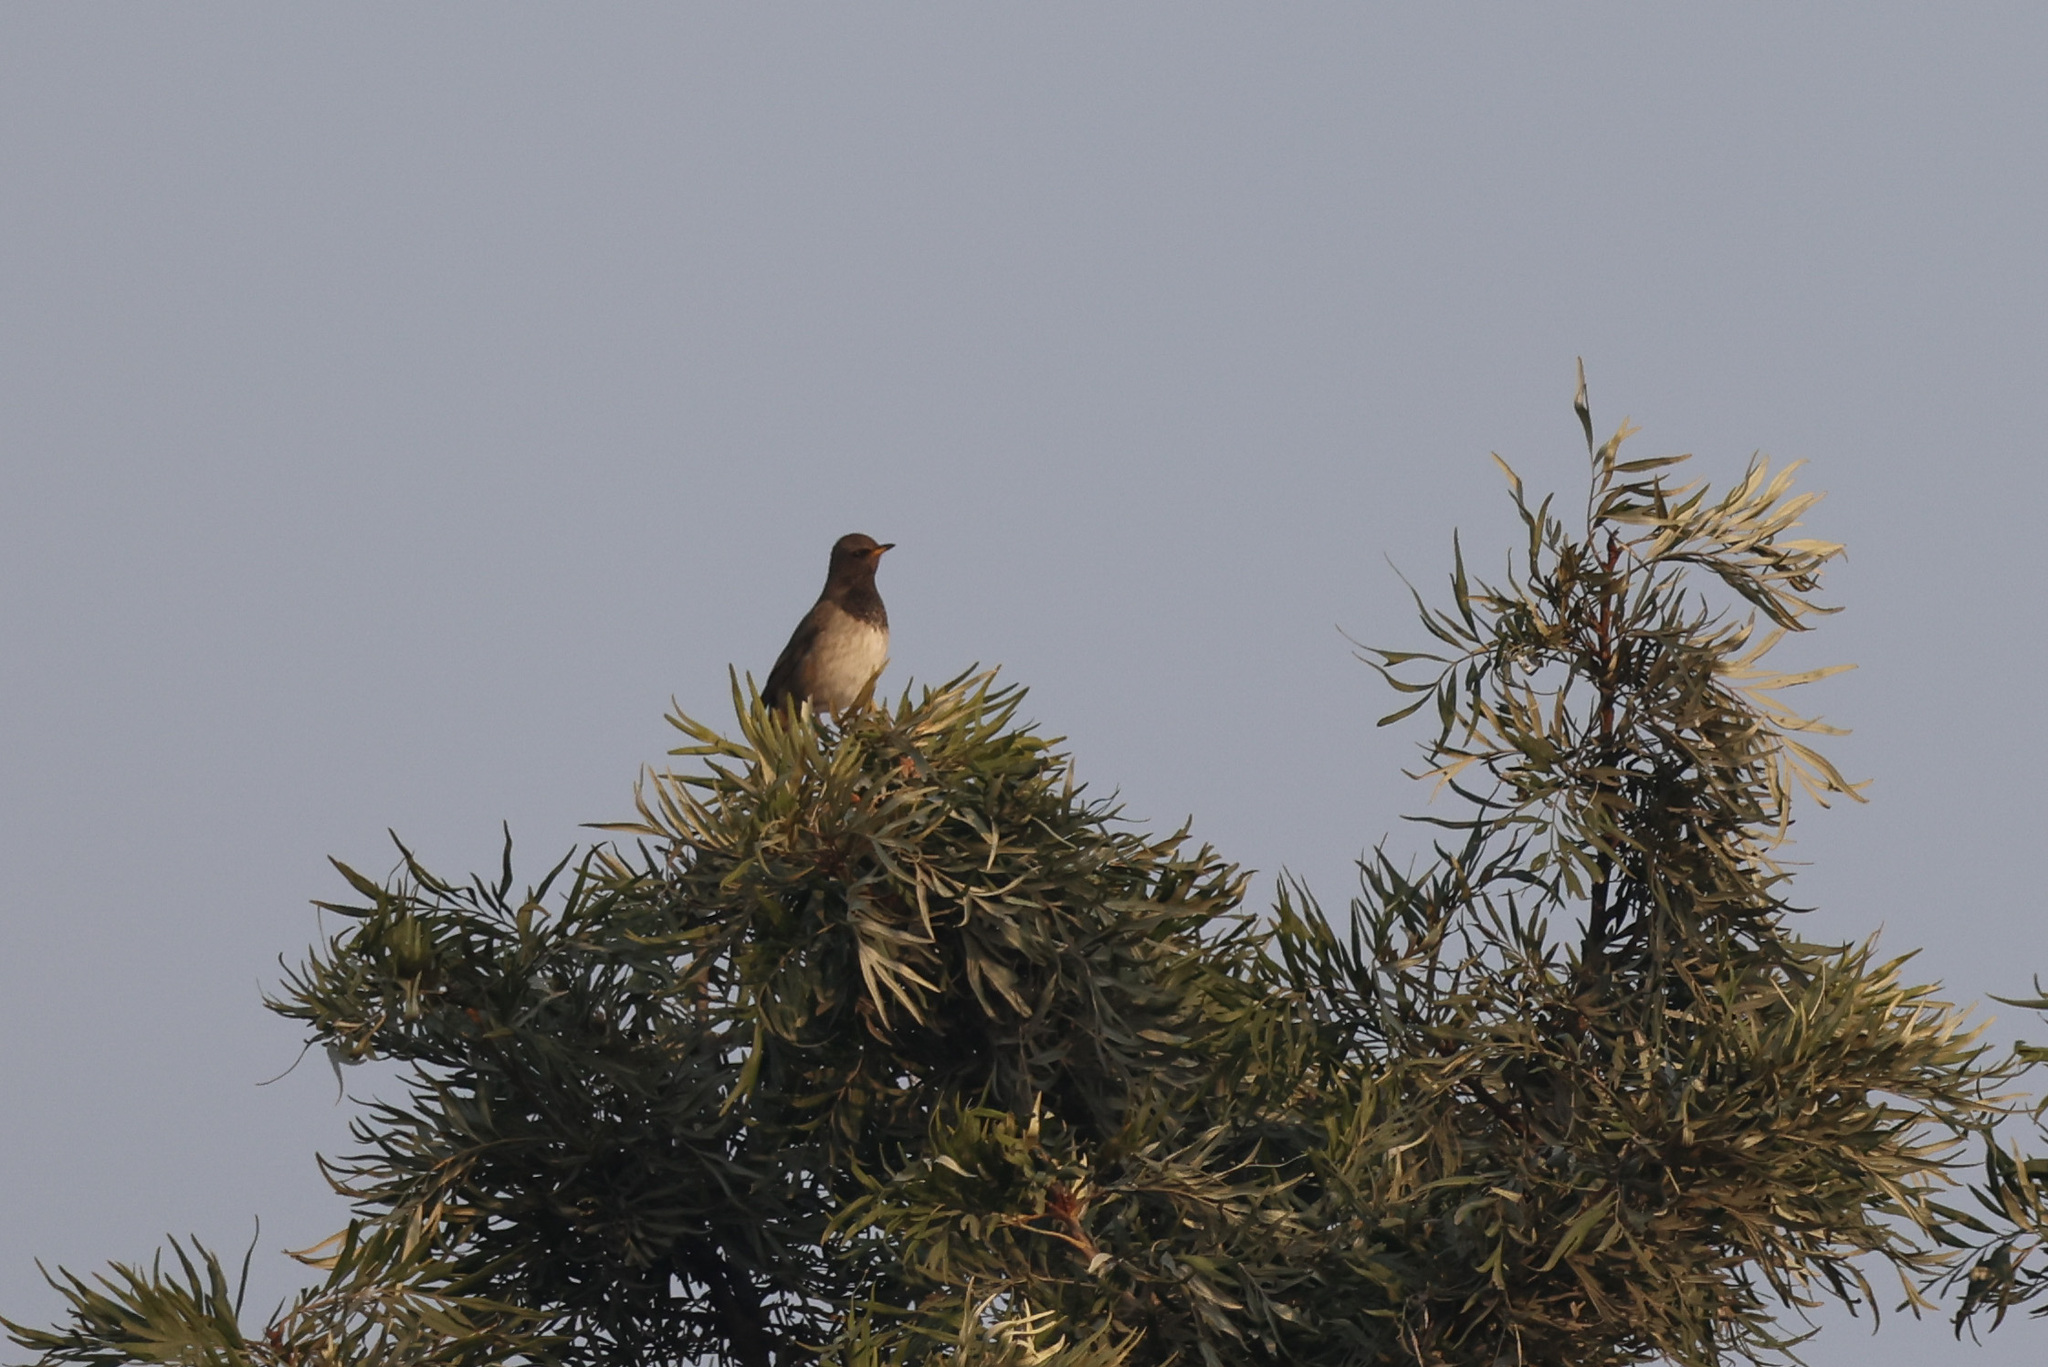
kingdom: Animalia
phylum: Chordata
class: Aves
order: Passeriformes
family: Turdidae
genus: Turdus
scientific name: Turdus atrogularis
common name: Black-throated thrush
